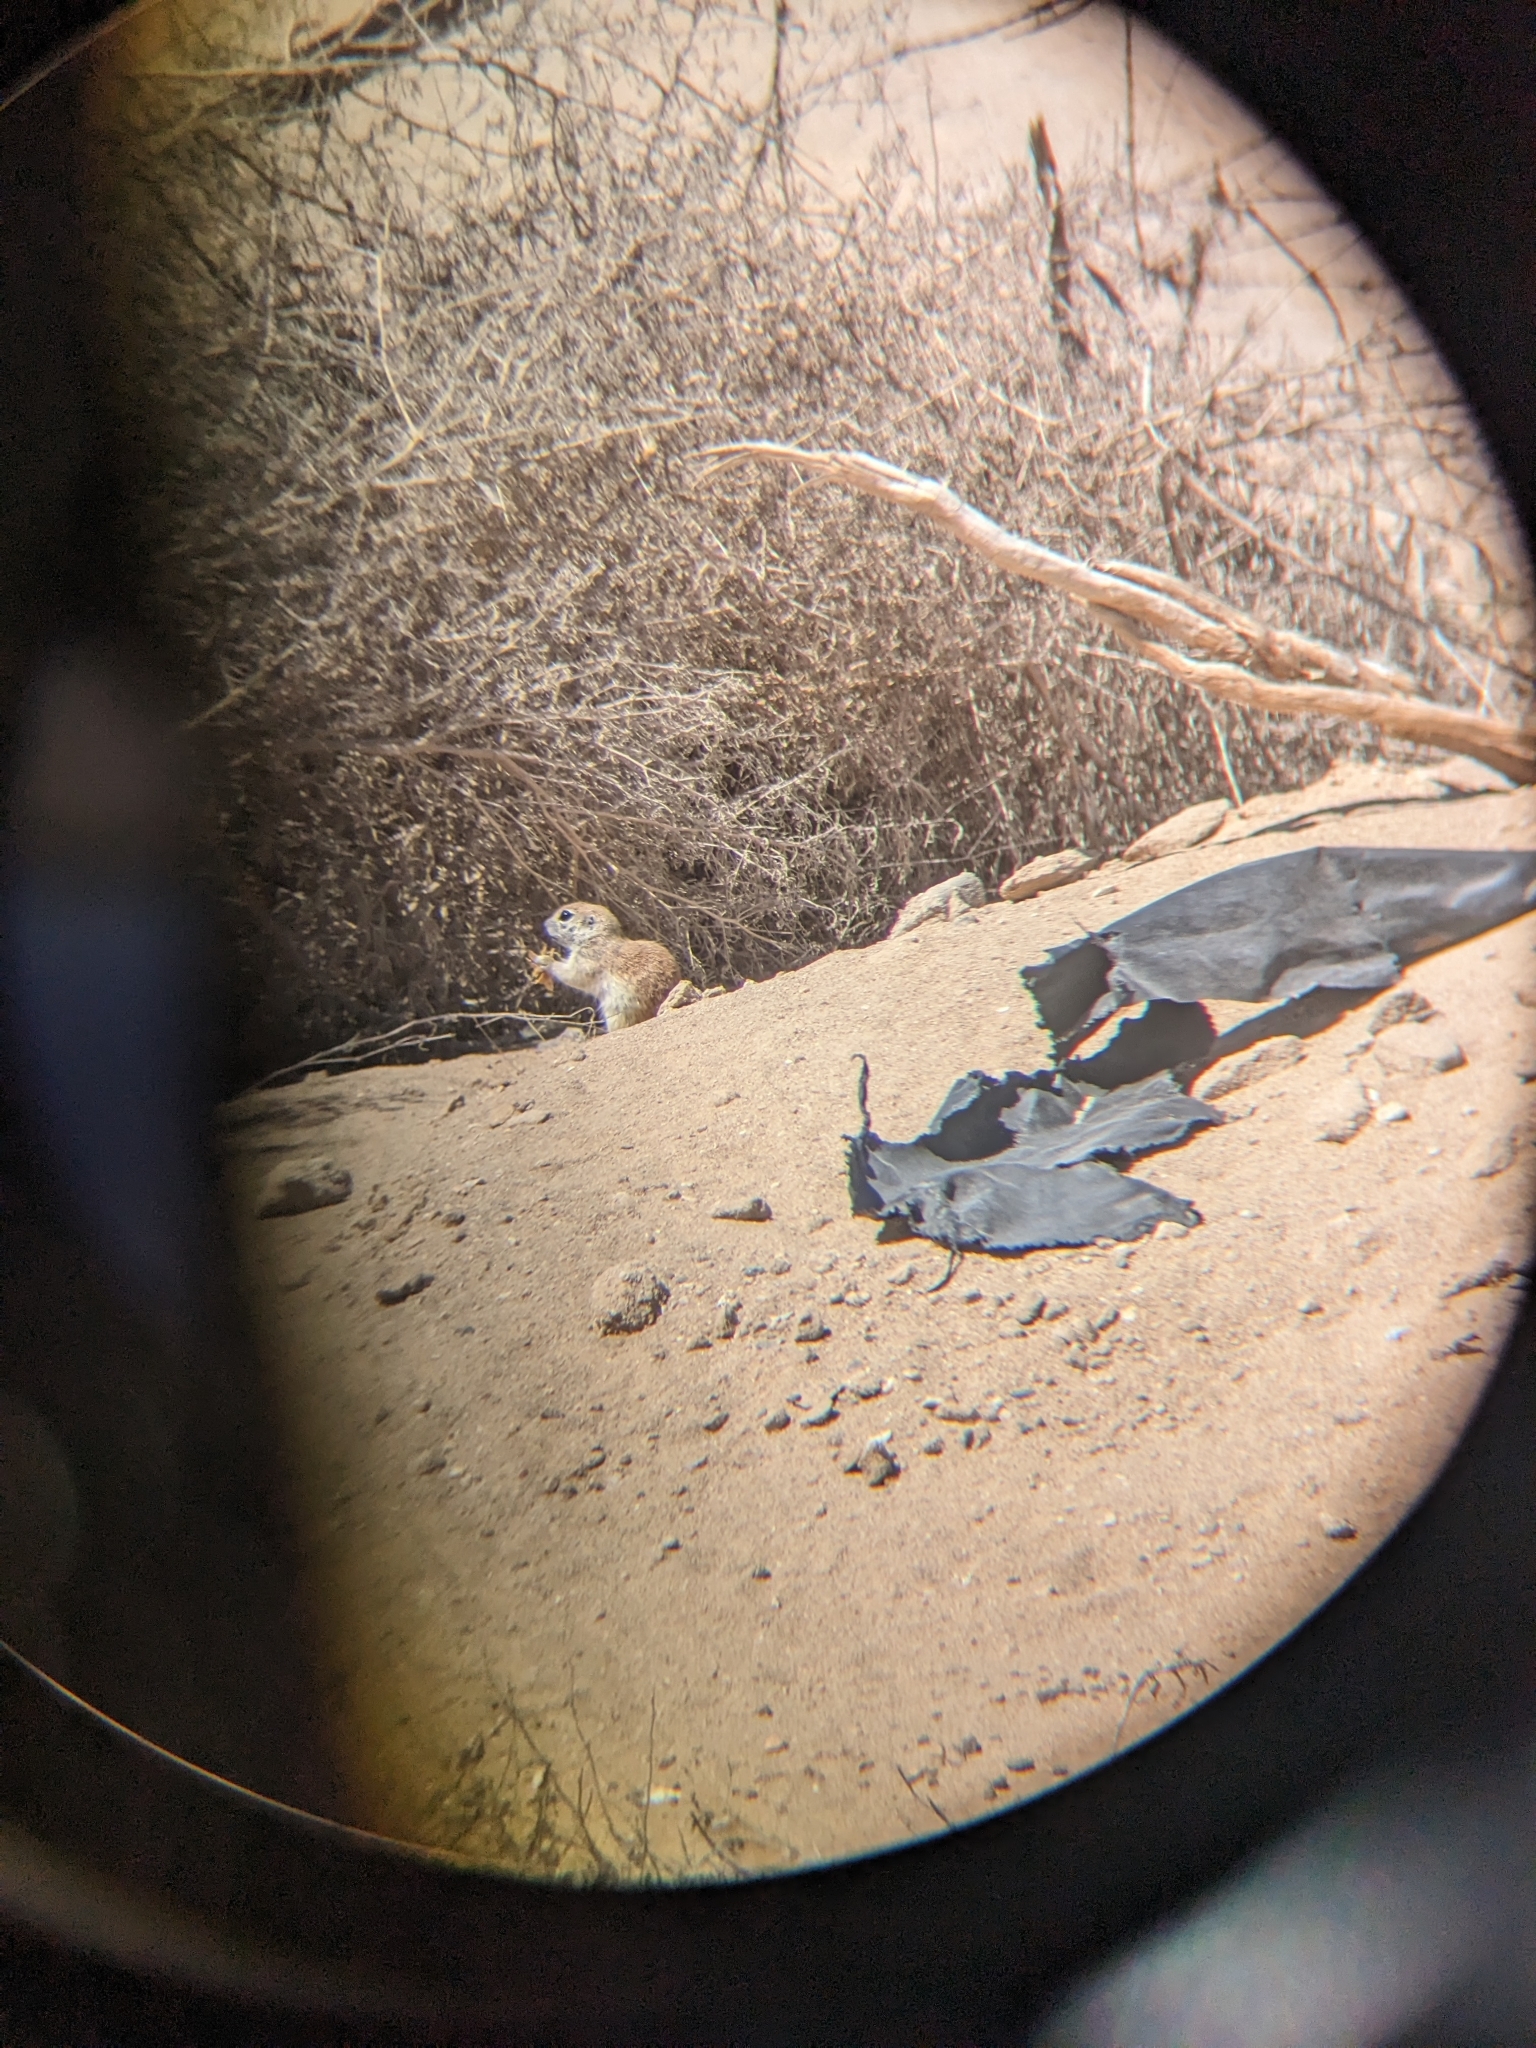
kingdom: Animalia
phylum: Chordata
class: Mammalia
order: Rodentia
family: Sciuridae
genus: Xerospermophilus
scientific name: Xerospermophilus tereticaudus
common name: Round-tailed ground squirrel
